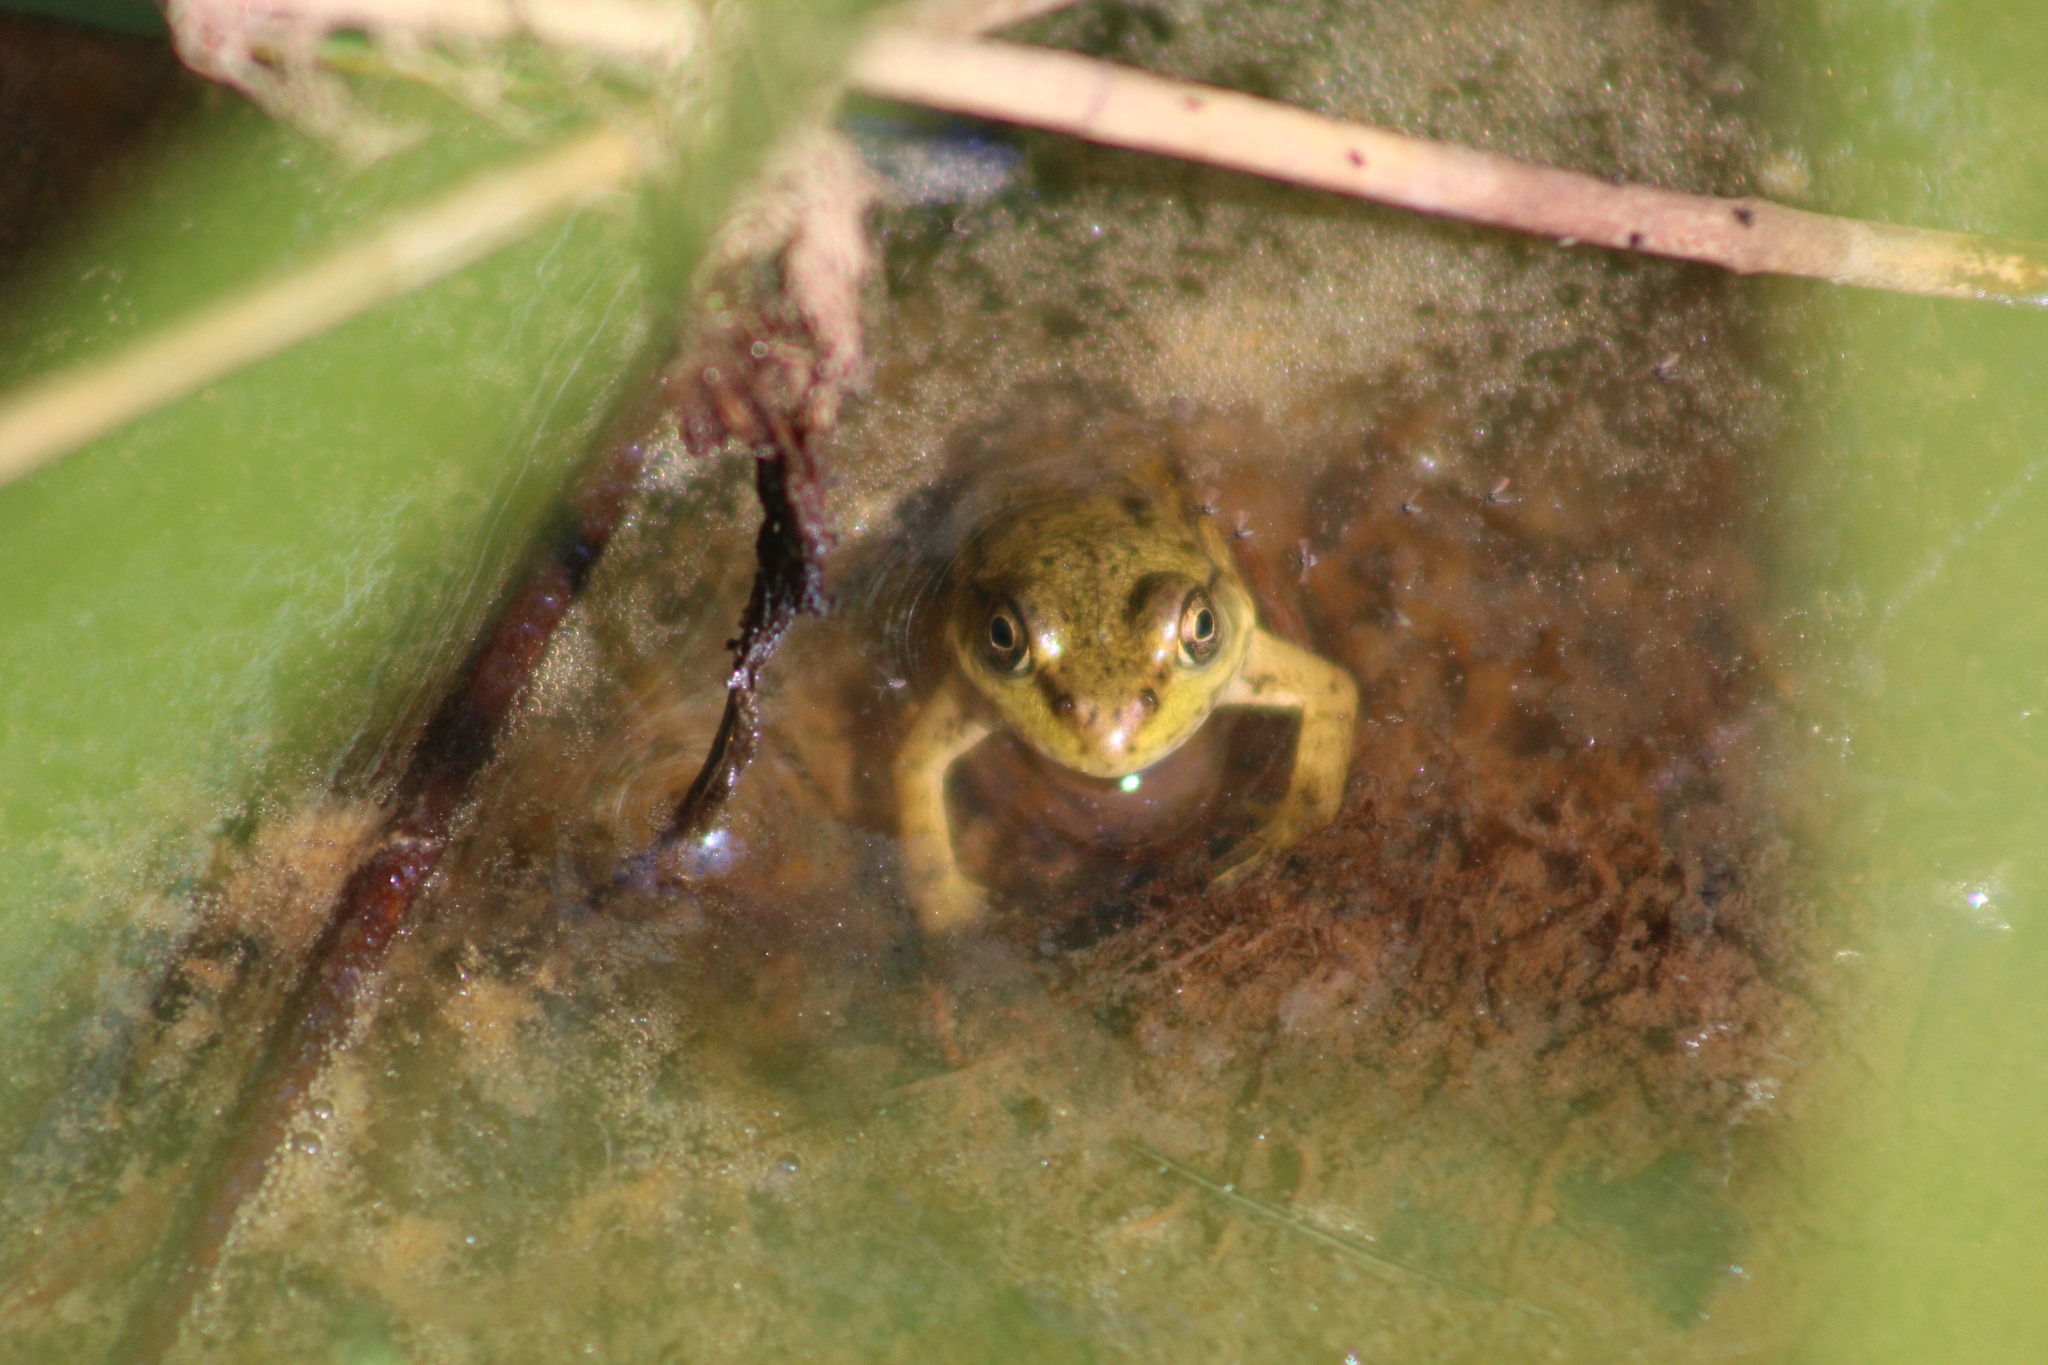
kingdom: Animalia
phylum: Chordata
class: Amphibia
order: Anura
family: Ranidae
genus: Lithobates
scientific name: Lithobates septentrionalis
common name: Mink frog
